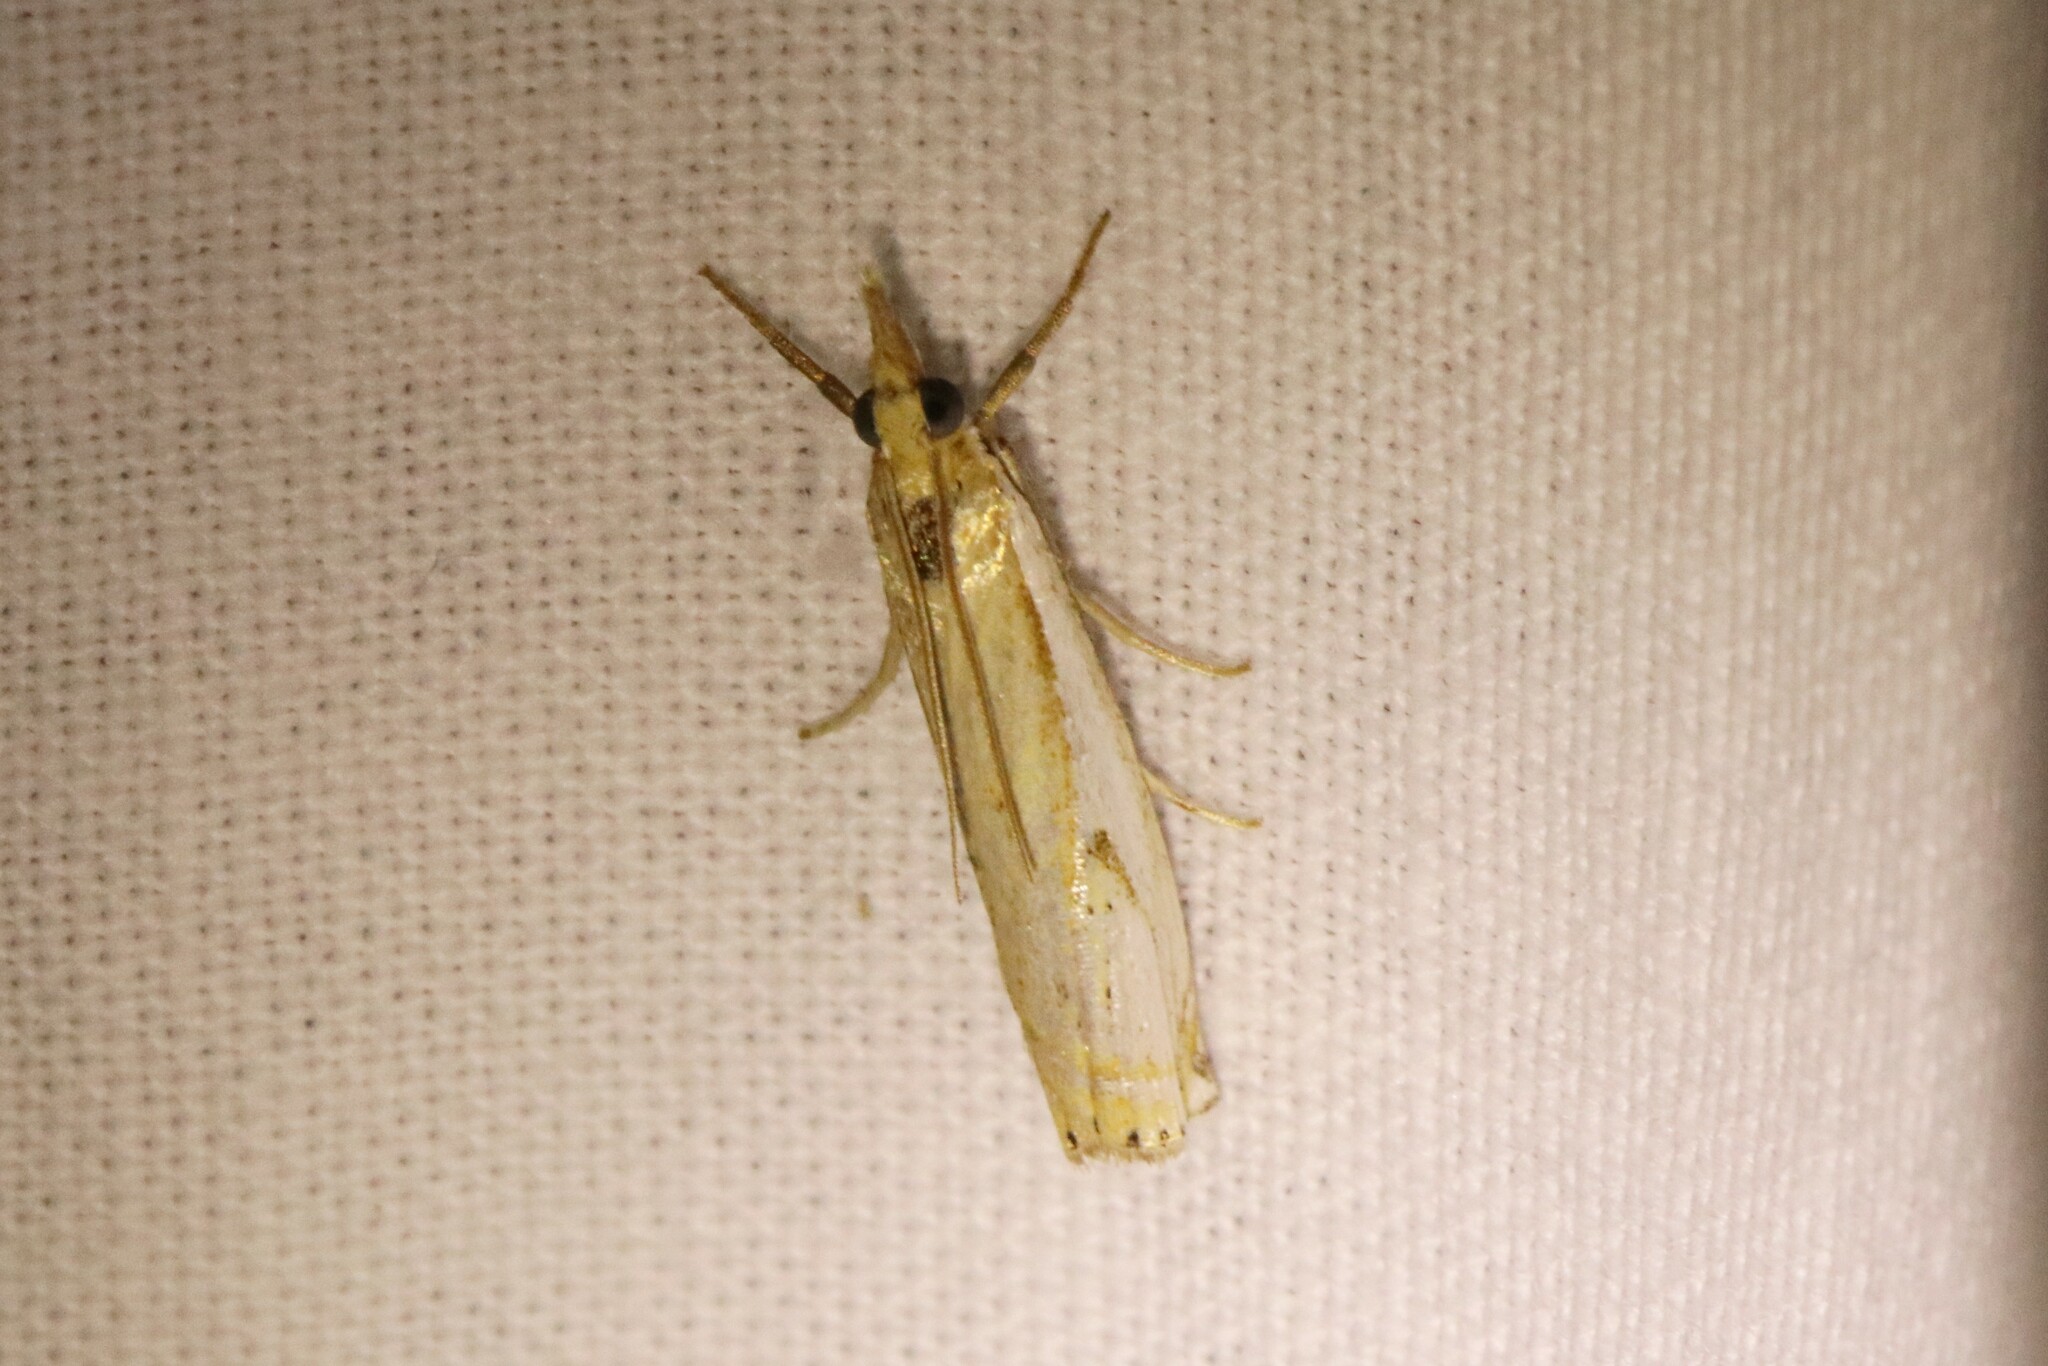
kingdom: Animalia
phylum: Arthropoda
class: Insecta
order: Lepidoptera
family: Crambidae
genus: Crambus
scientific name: Crambus agitatellus
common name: Double-banded grass-veneer
